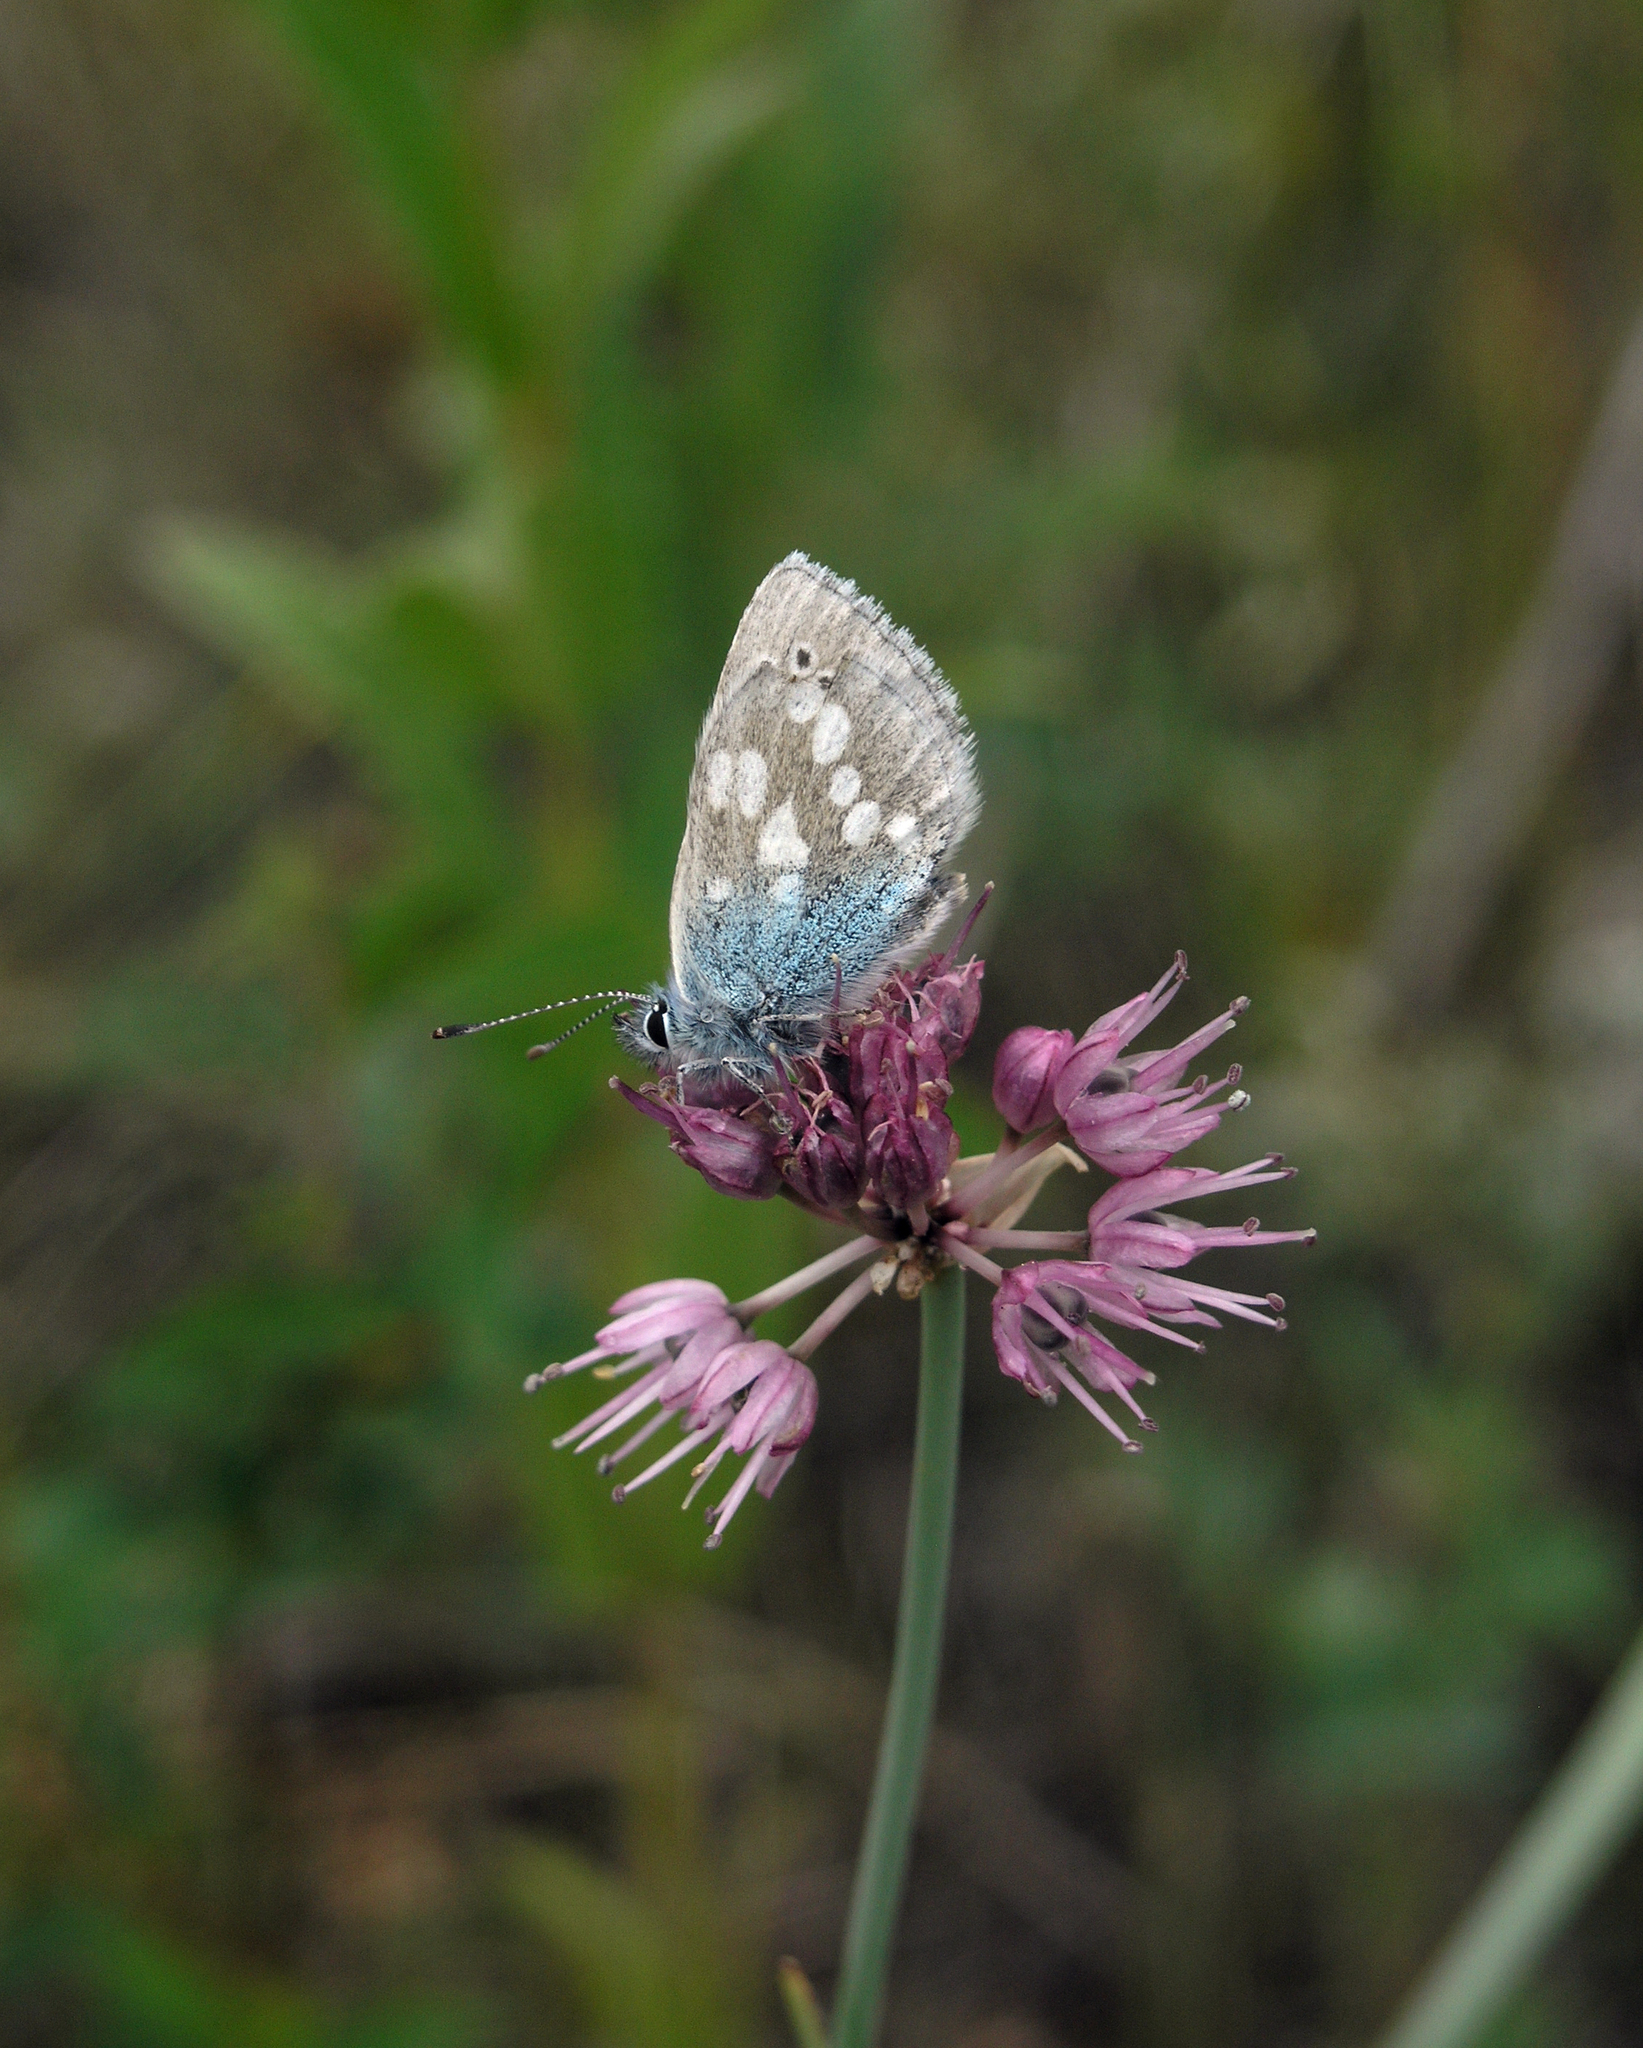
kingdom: Animalia
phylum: Arthropoda
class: Insecta
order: Lepidoptera
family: Lycaenidae
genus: Albulina
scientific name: Albulina orbitulus
